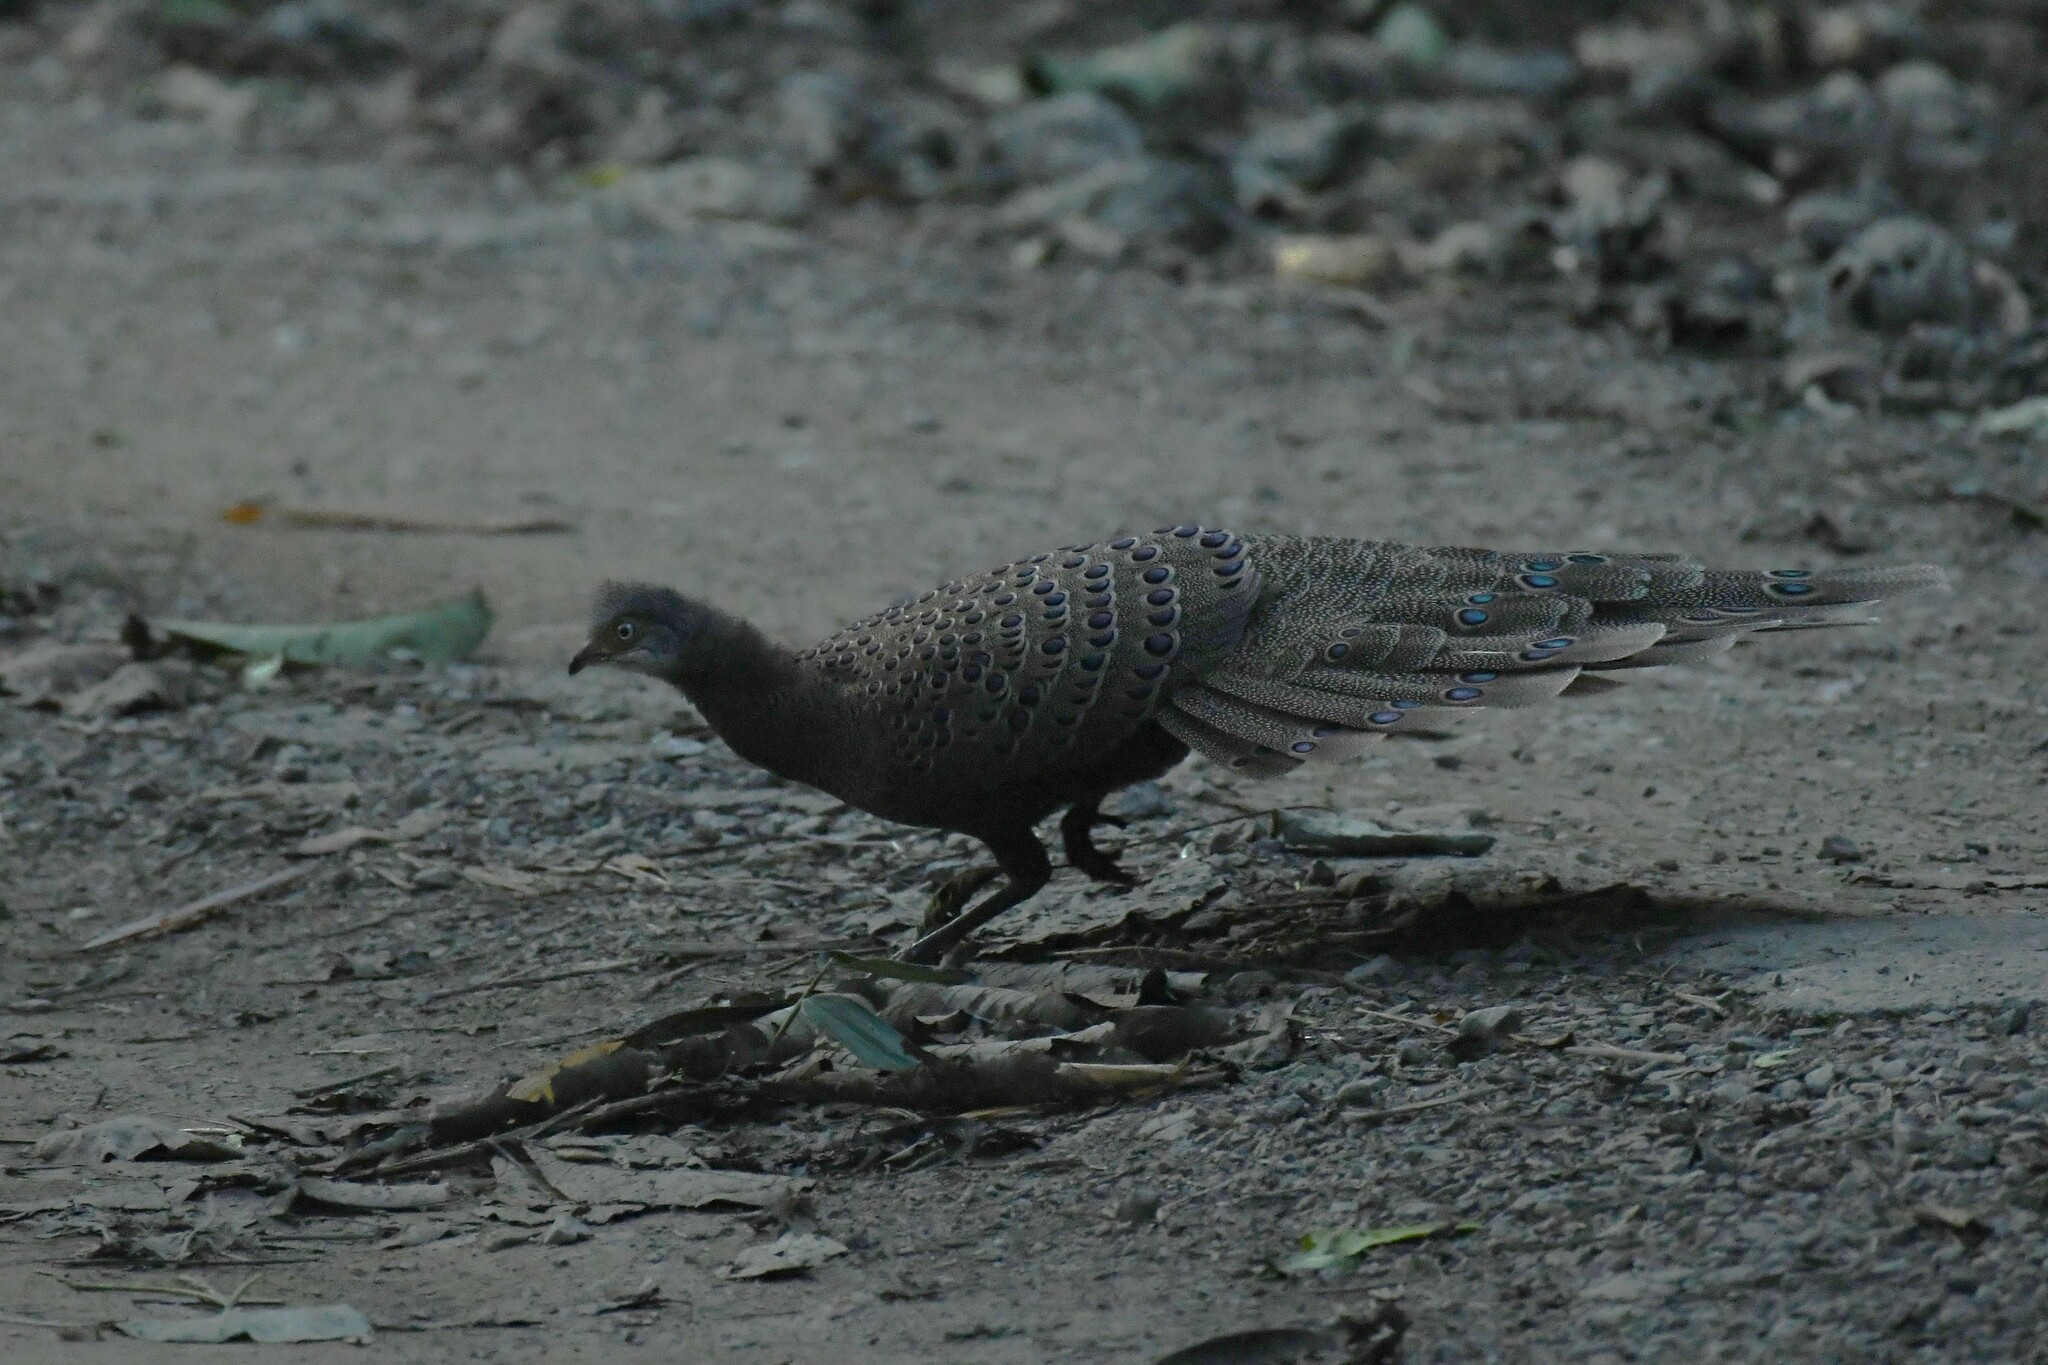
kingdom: Animalia
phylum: Chordata
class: Aves
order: Galliformes
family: Phasianidae
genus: Polyplectron
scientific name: Polyplectron bicalcaratum
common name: Grey peacock-pheasant
